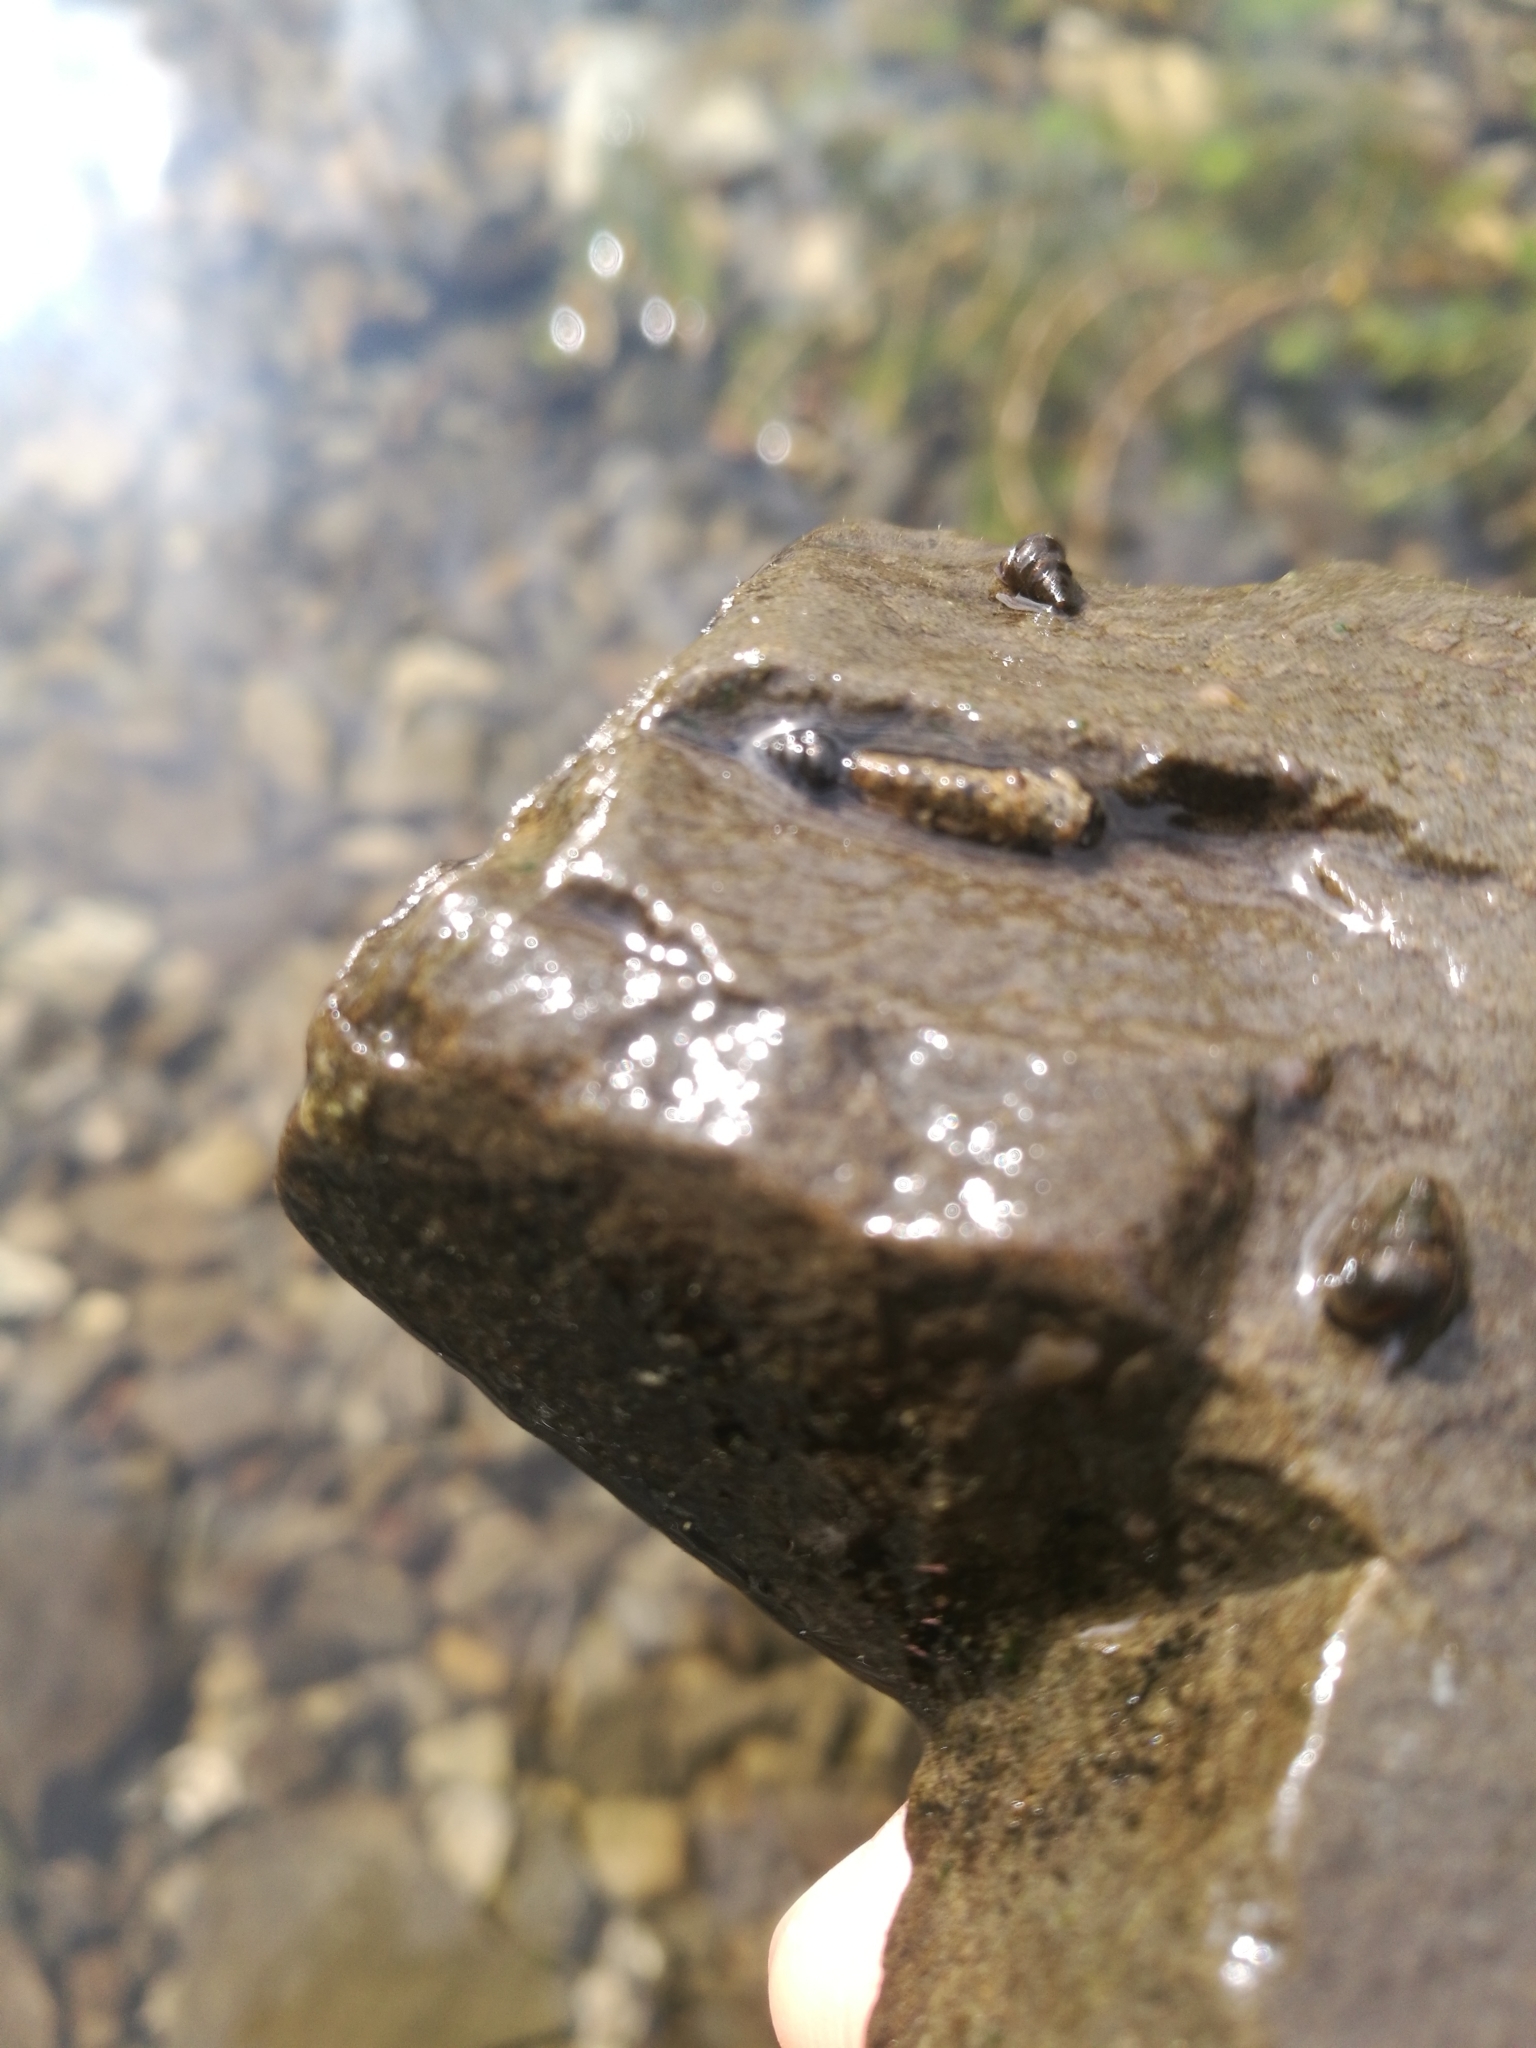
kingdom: Animalia
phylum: Mollusca
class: Gastropoda
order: Littorinimorpha
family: Tateidae
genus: Potamopyrgus
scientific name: Potamopyrgus antipodarum
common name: Jenkins' spire snail
